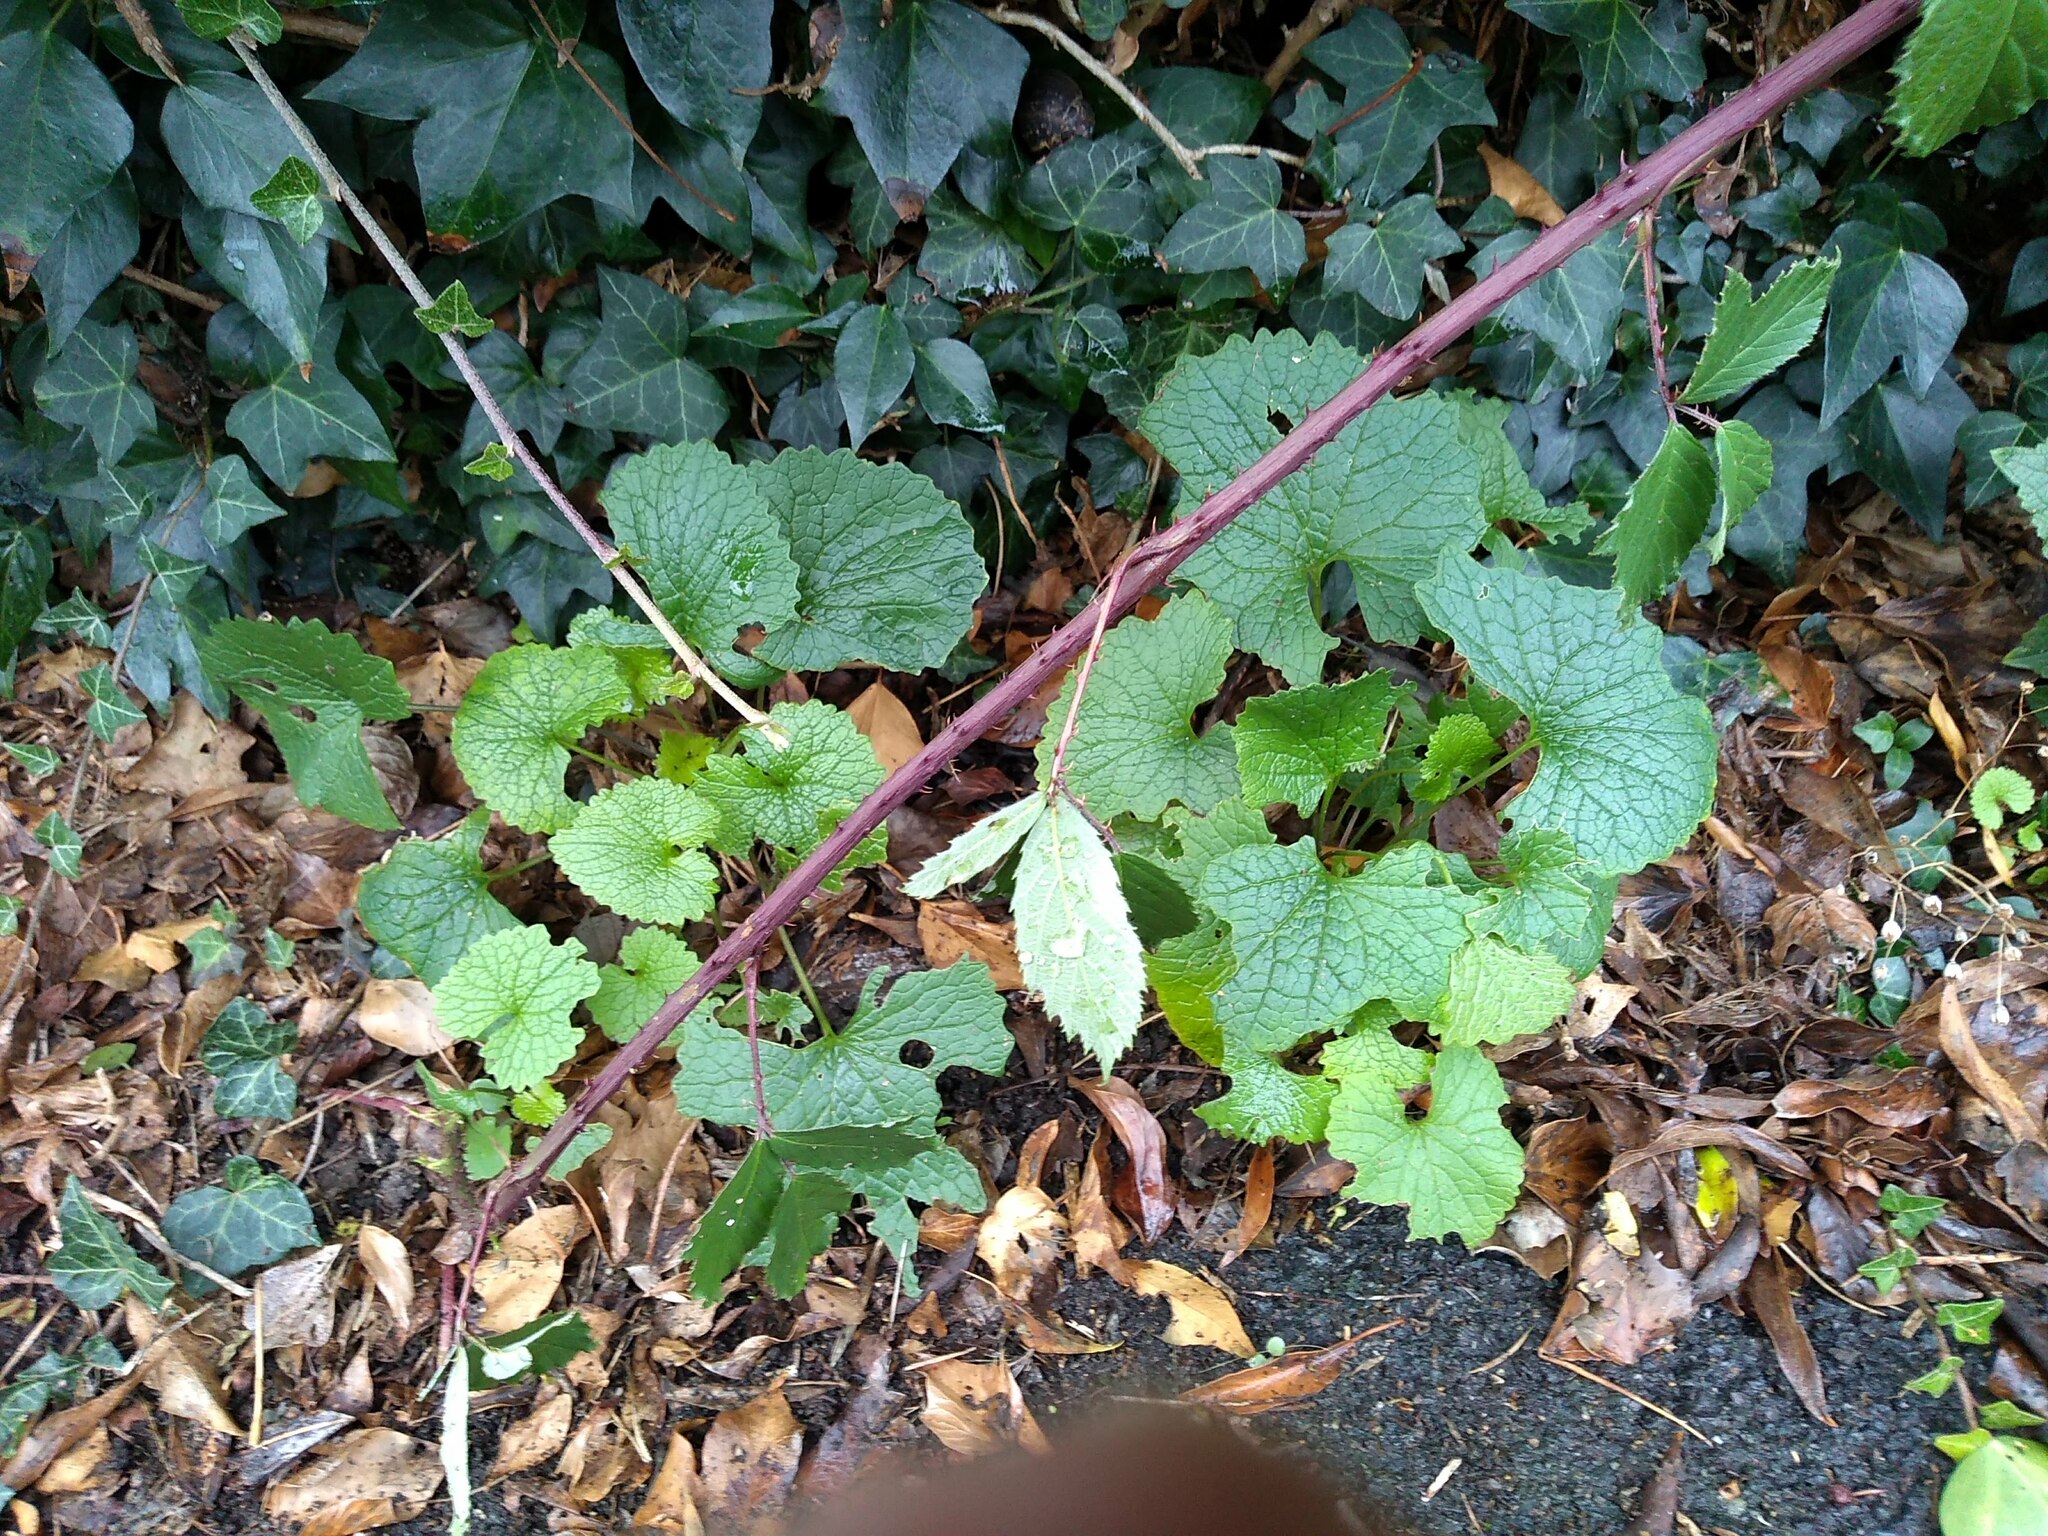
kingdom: Plantae
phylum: Tracheophyta
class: Magnoliopsida
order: Brassicales
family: Brassicaceae
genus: Alliaria
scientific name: Alliaria petiolata
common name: Garlic mustard
